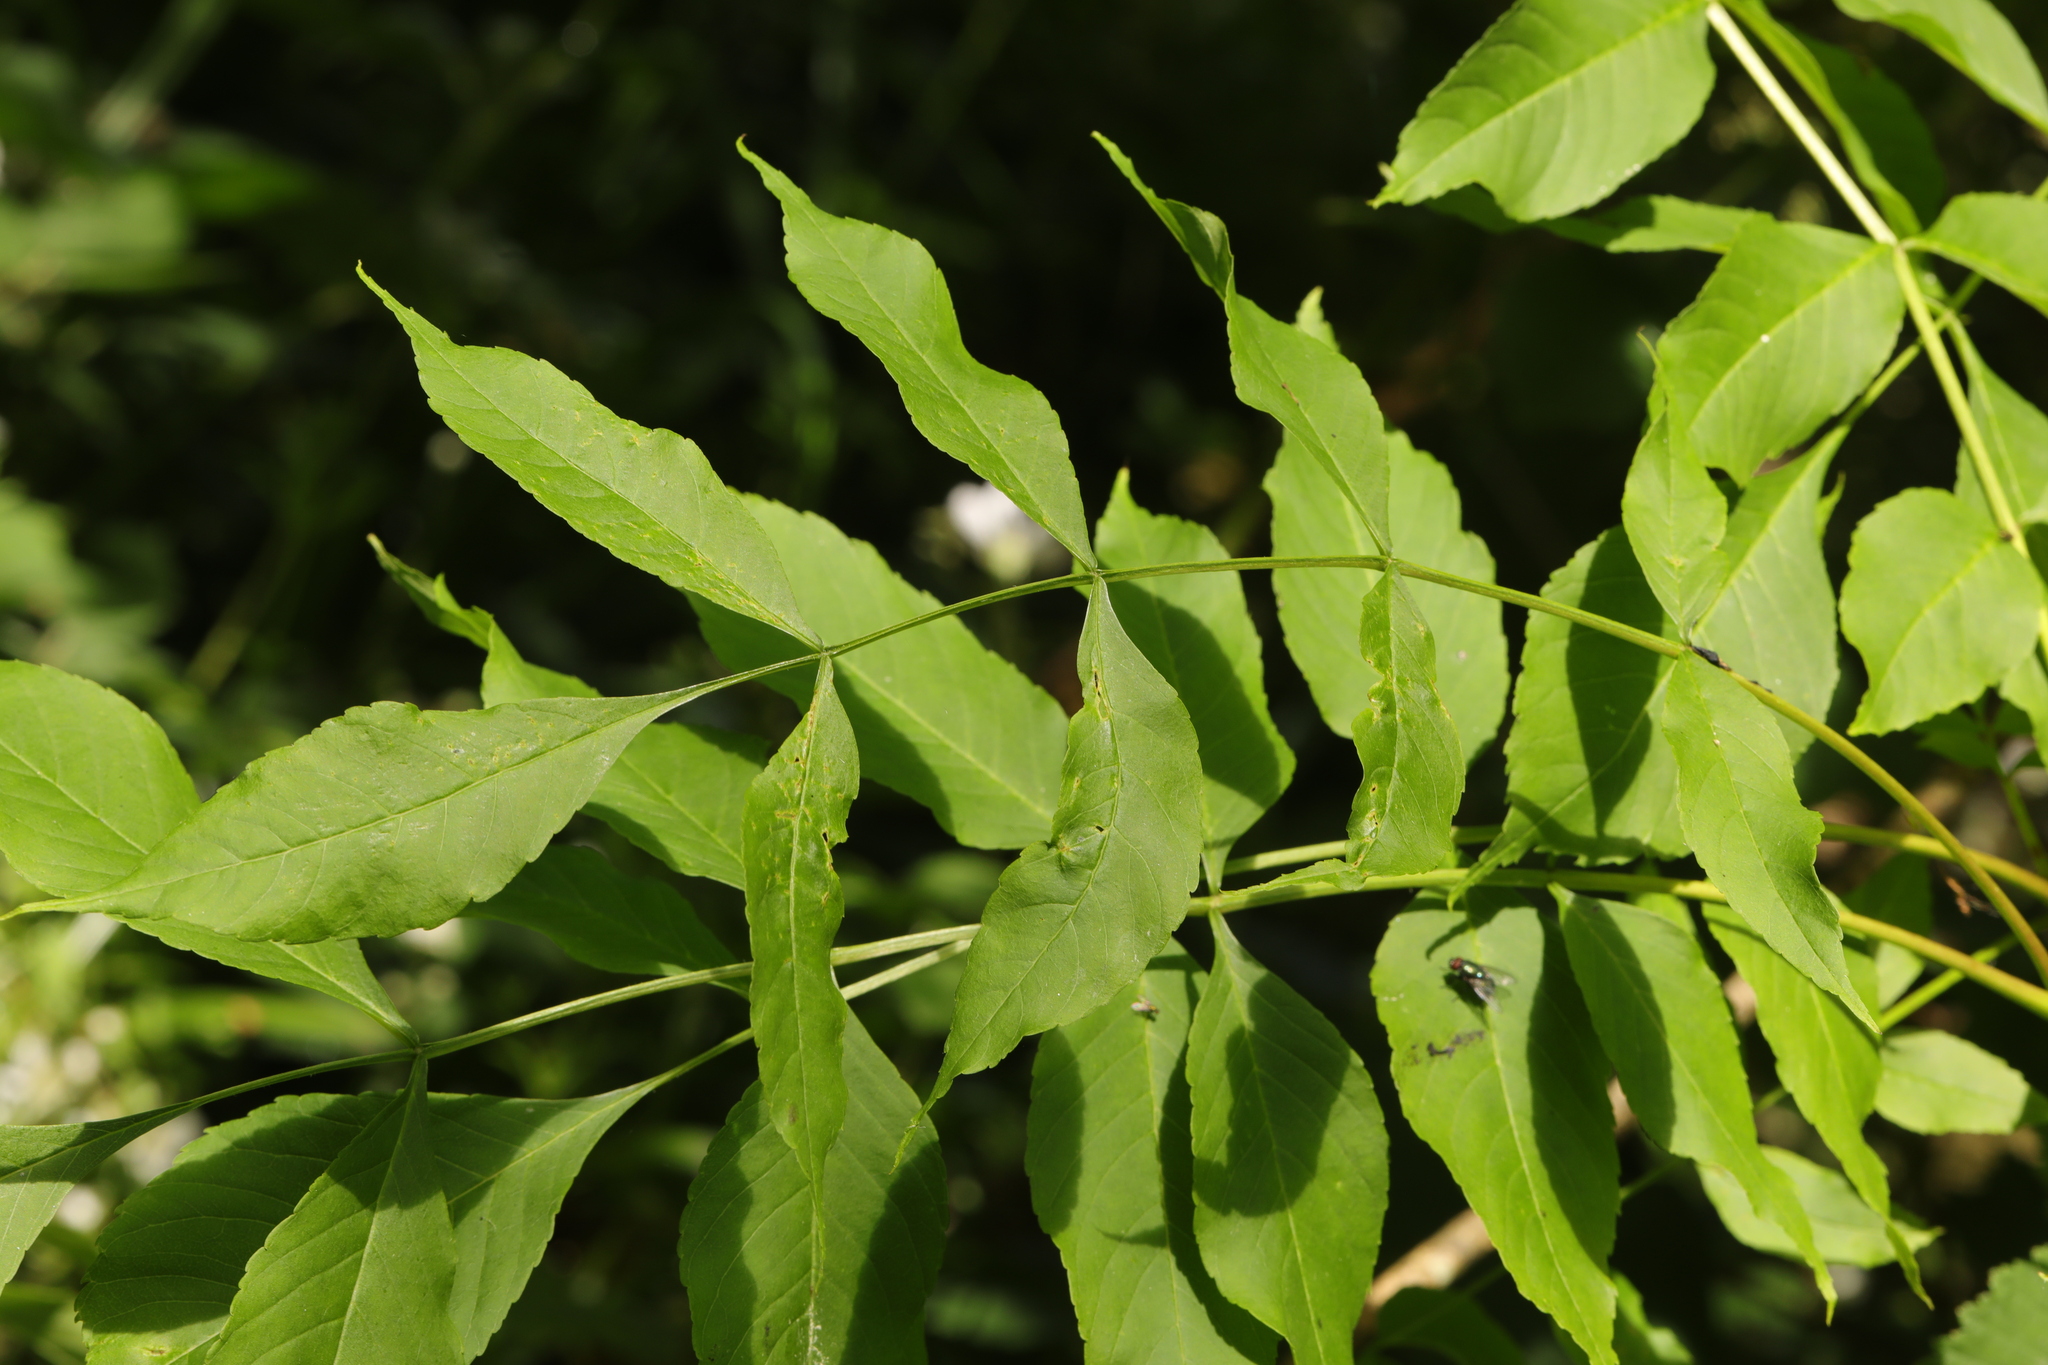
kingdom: Plantae
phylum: Tracheophyta
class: Magnoliopsida
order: Lamiales
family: Oleaceae
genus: Fraxinus
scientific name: Fraxinus excelsior
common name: European ash
